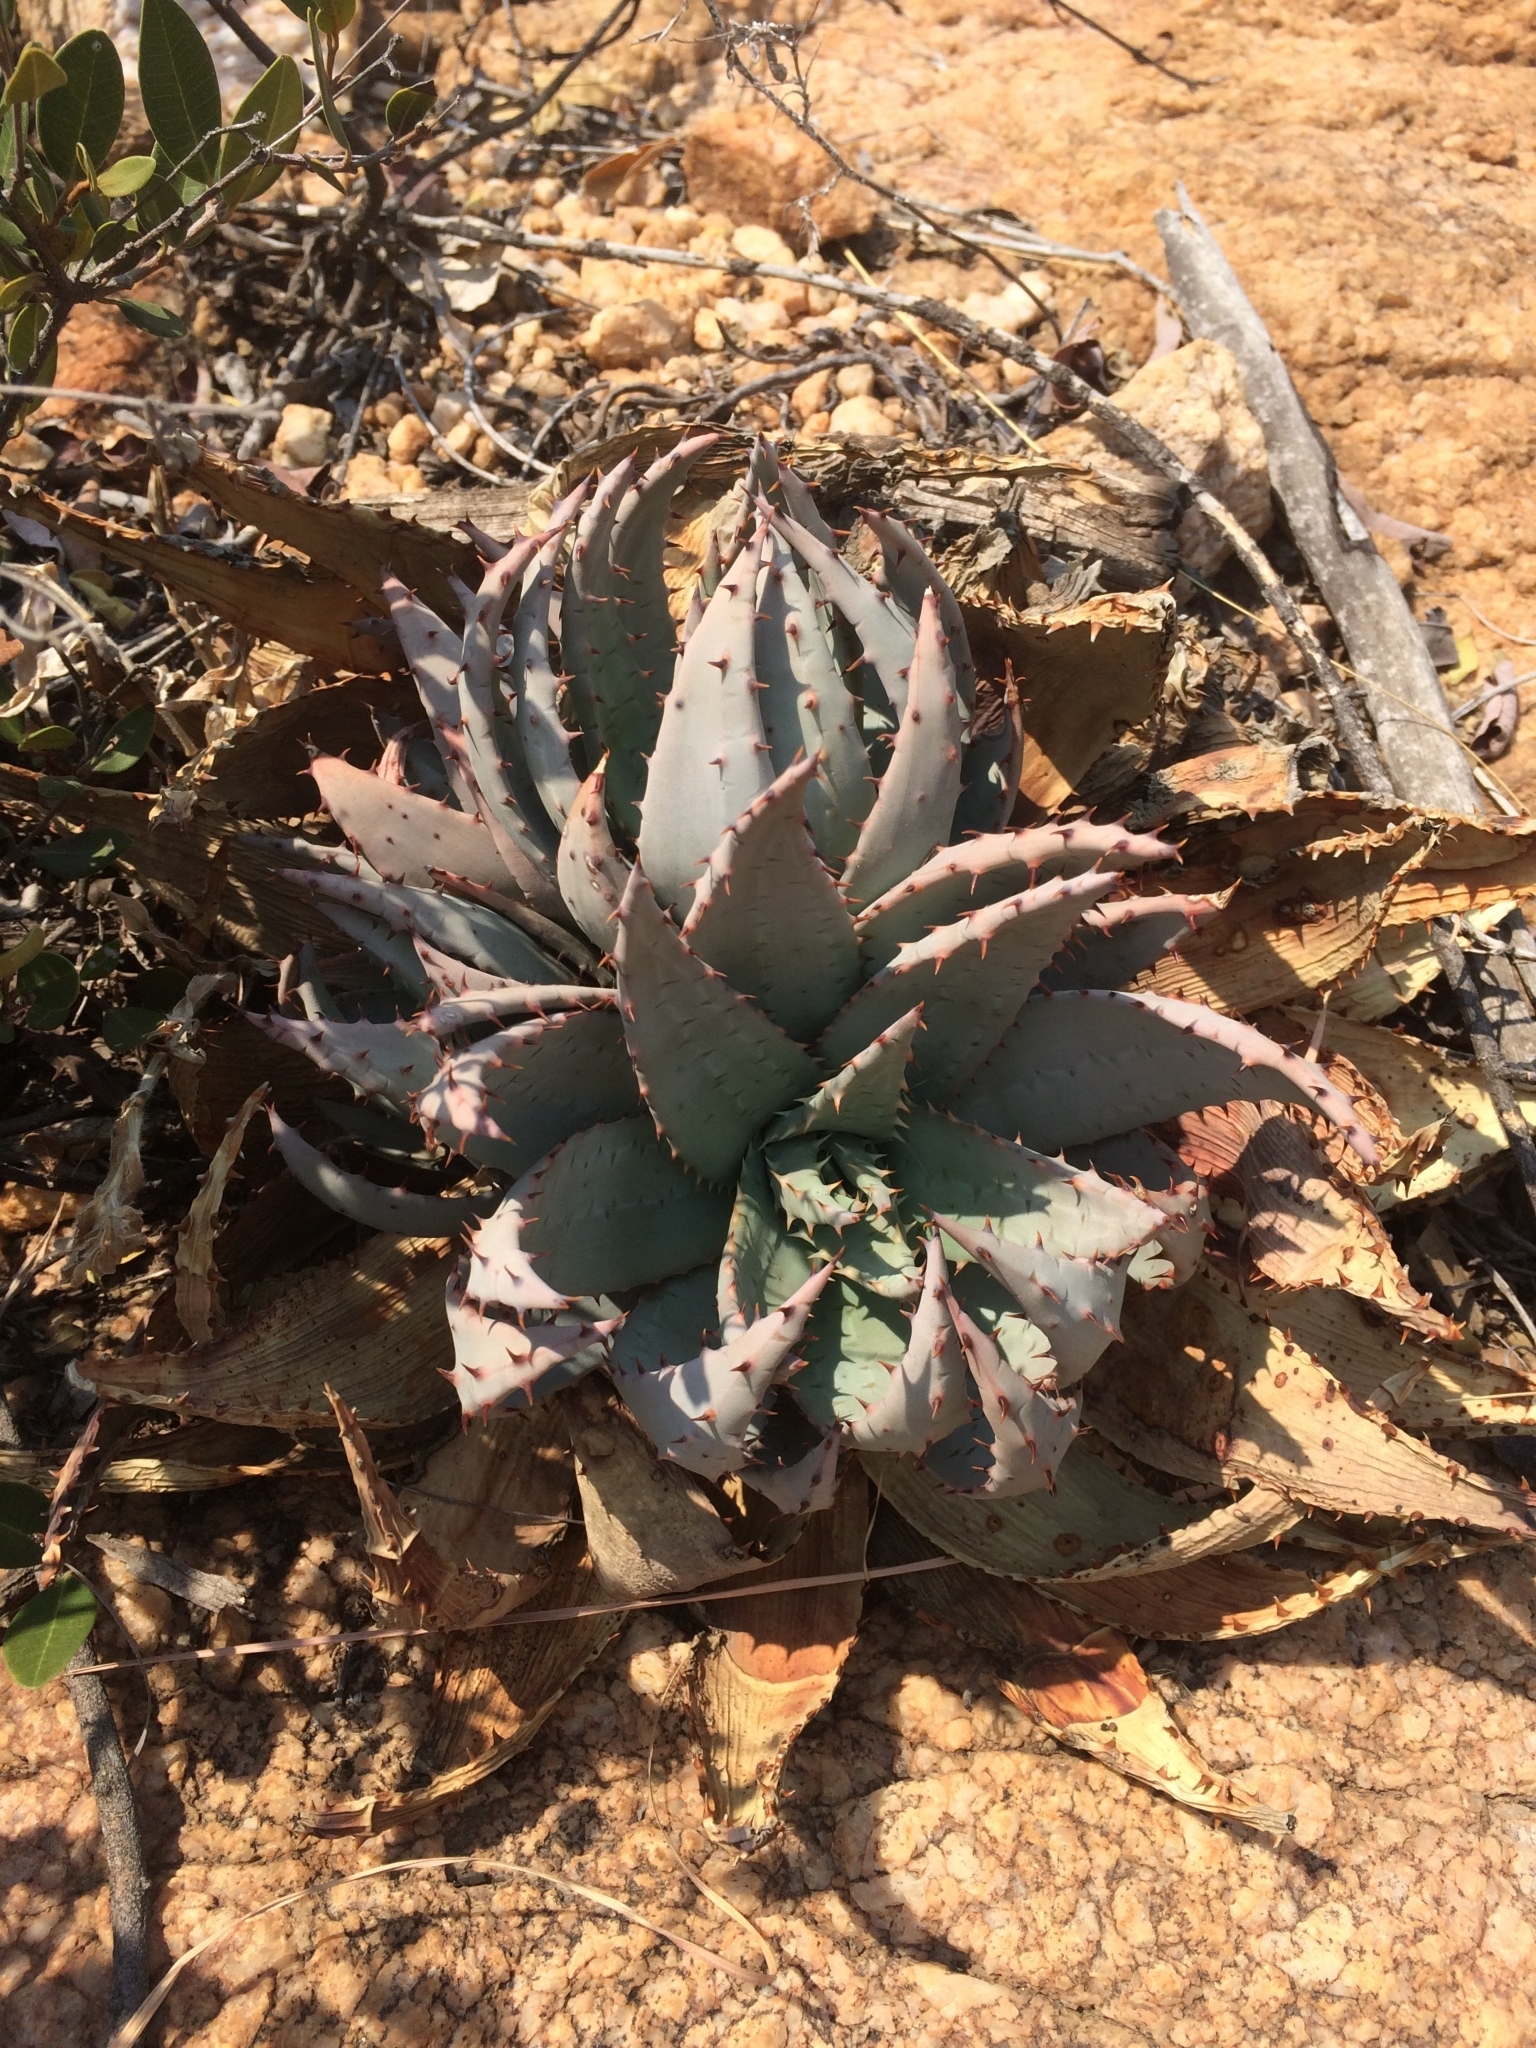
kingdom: Plantae
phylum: Tracheophyta
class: Liliopsida
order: Asparagales
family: Asphodelaceae
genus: Aloe
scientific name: Aloe peglerae
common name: Red-hot poker
